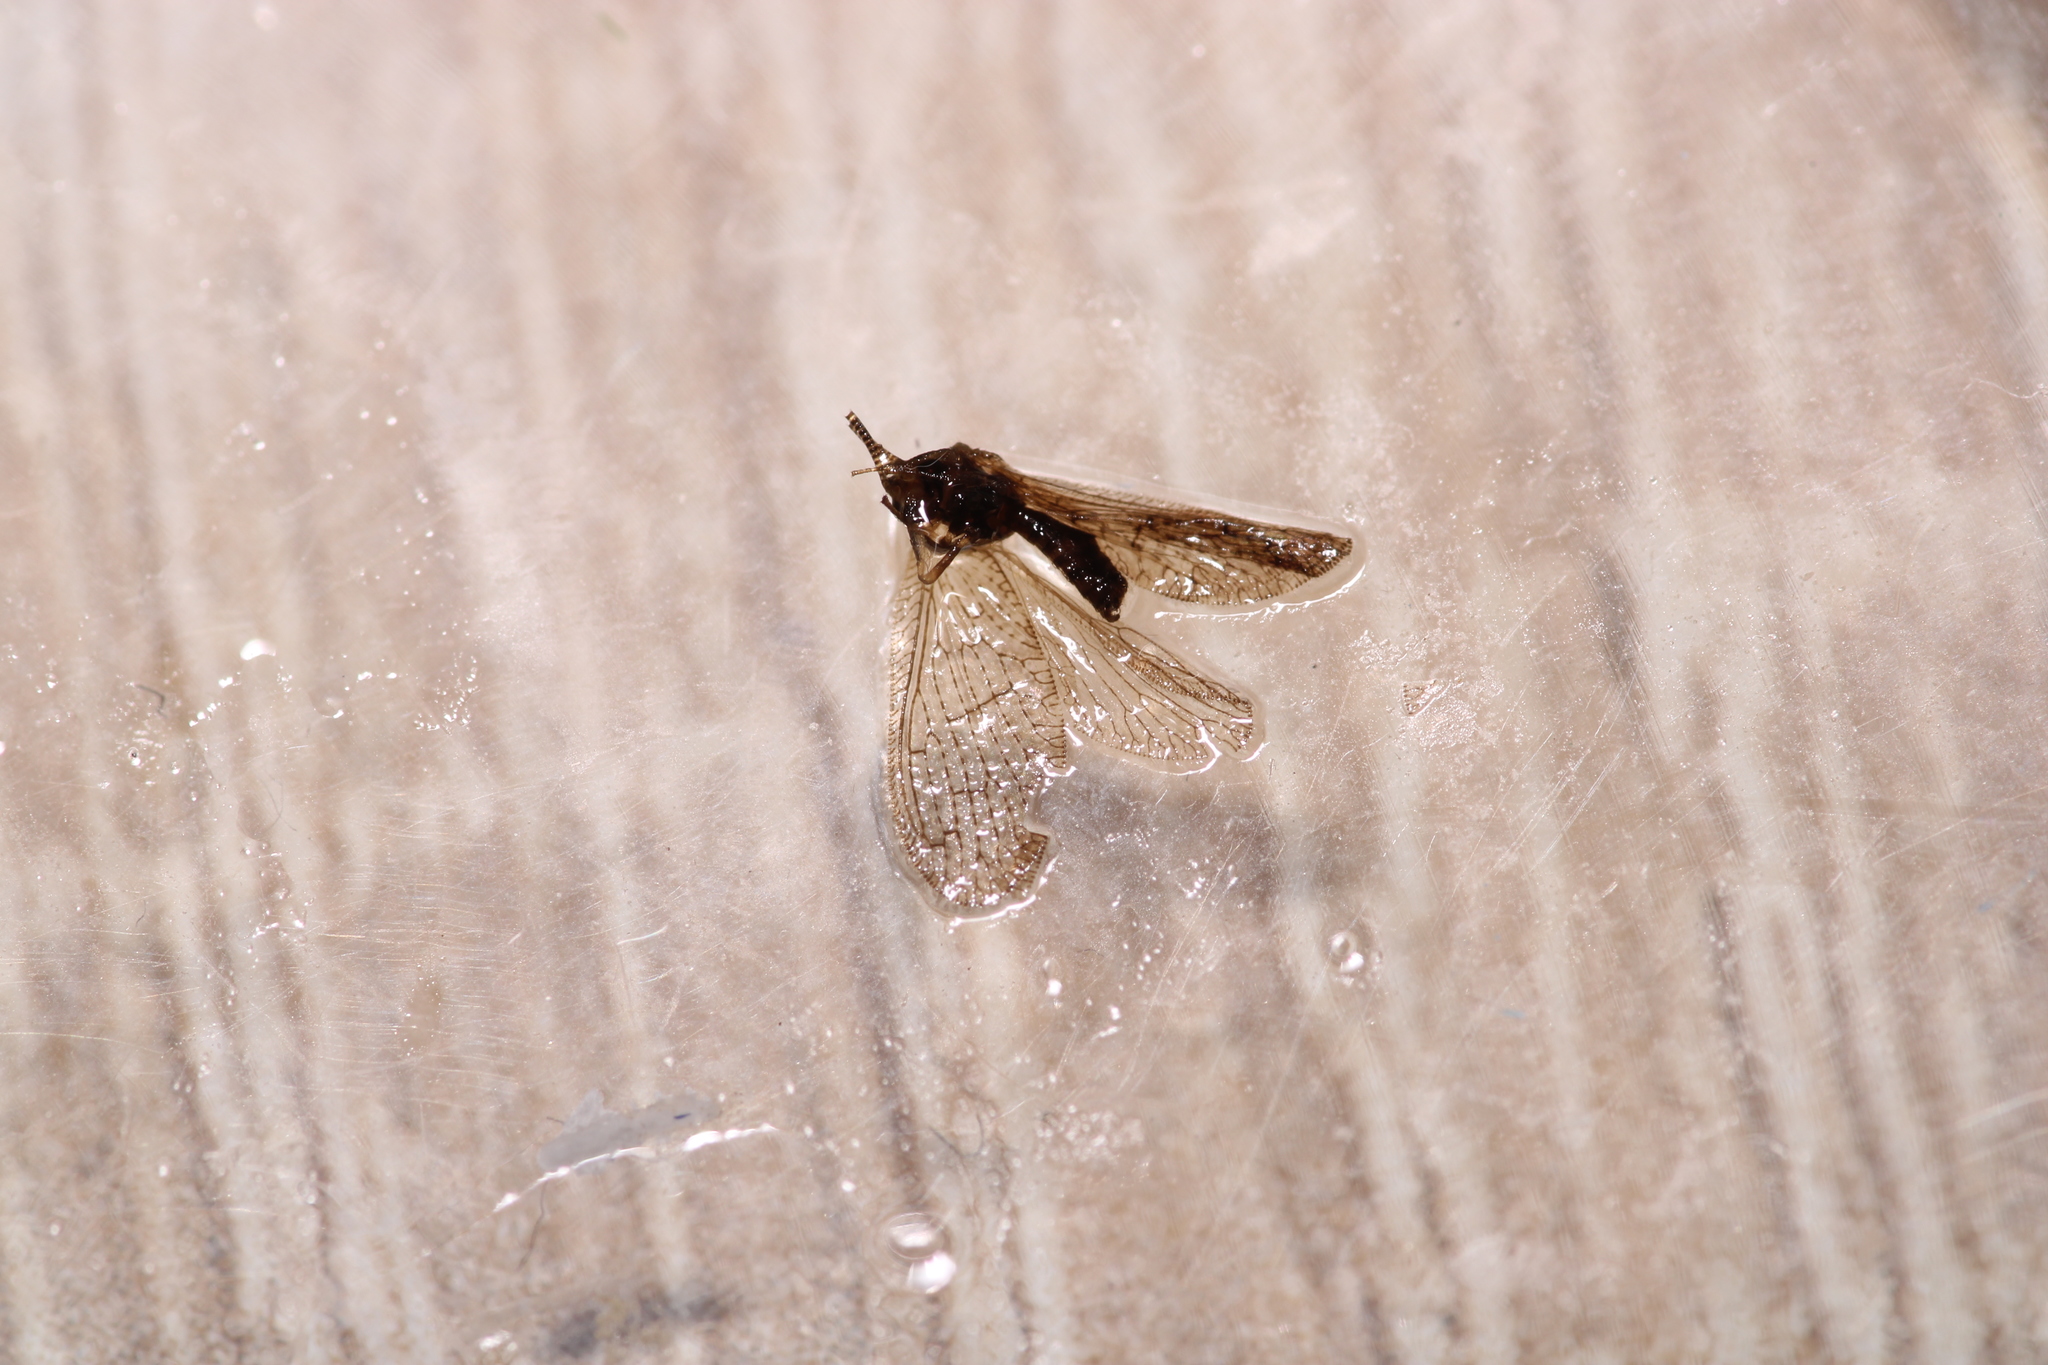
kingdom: Animalia
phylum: Arthropoda
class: Insecta
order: Neuroptera
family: Hemerobiidae
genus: Sympherobius
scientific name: Sympherobius pygmaeus
